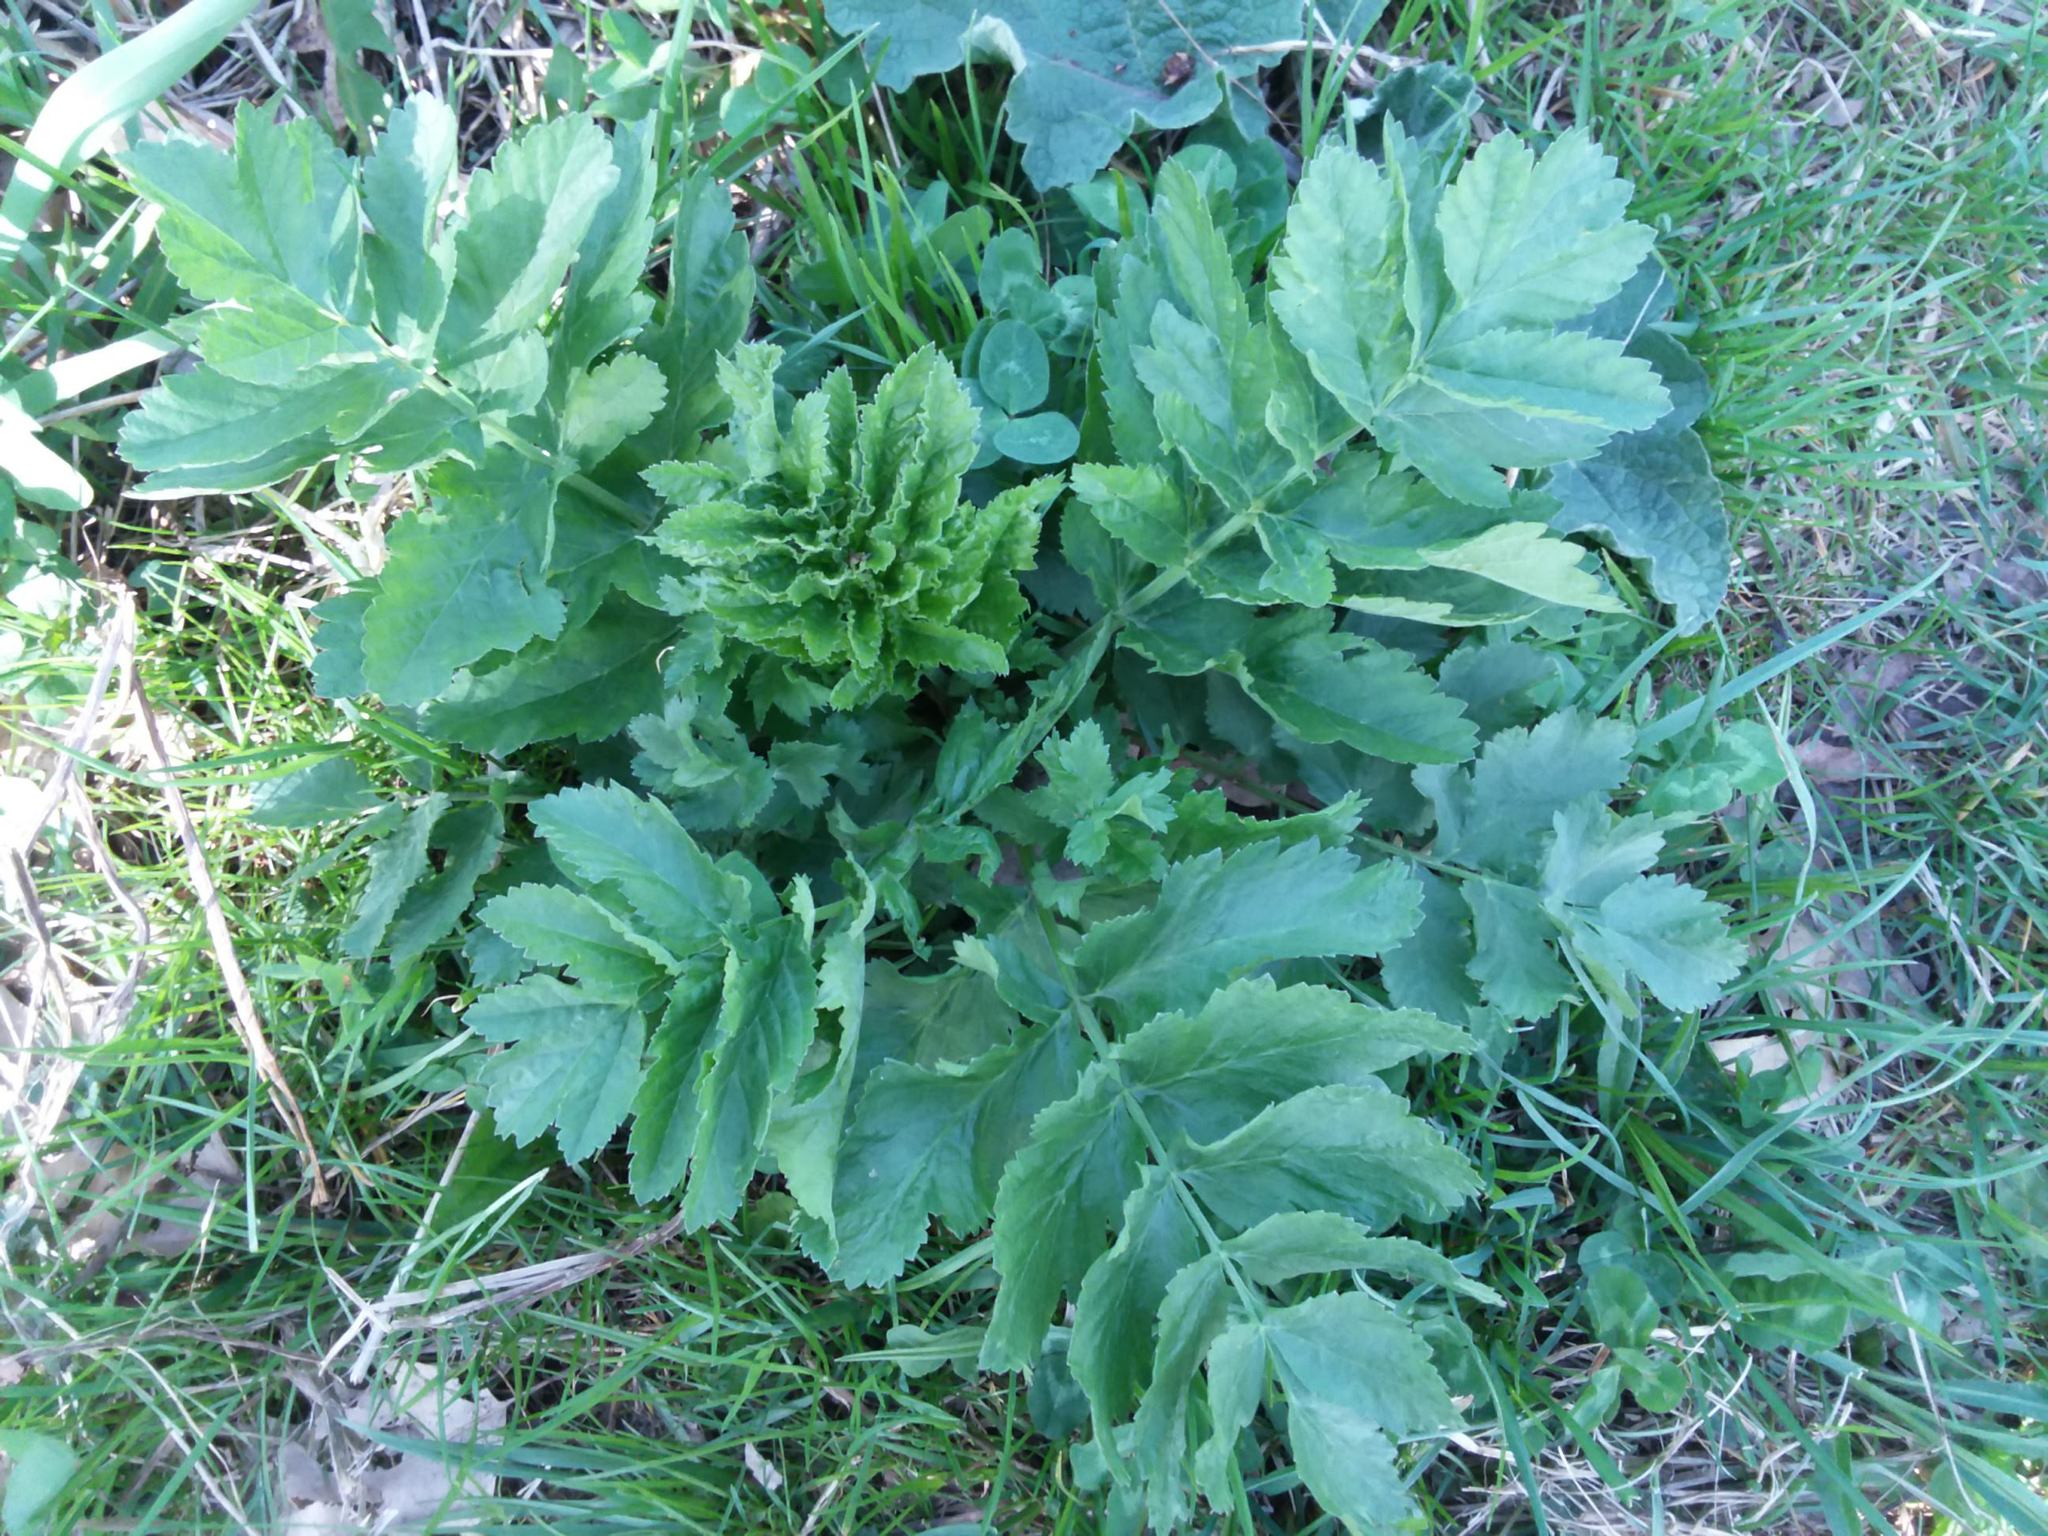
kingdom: Plantae
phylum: Tracheophyta
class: Magnoliopsida
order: Apiales
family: Apiaceae
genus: Pastinaca
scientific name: Pastinaca sativa
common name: Wild parsnip
